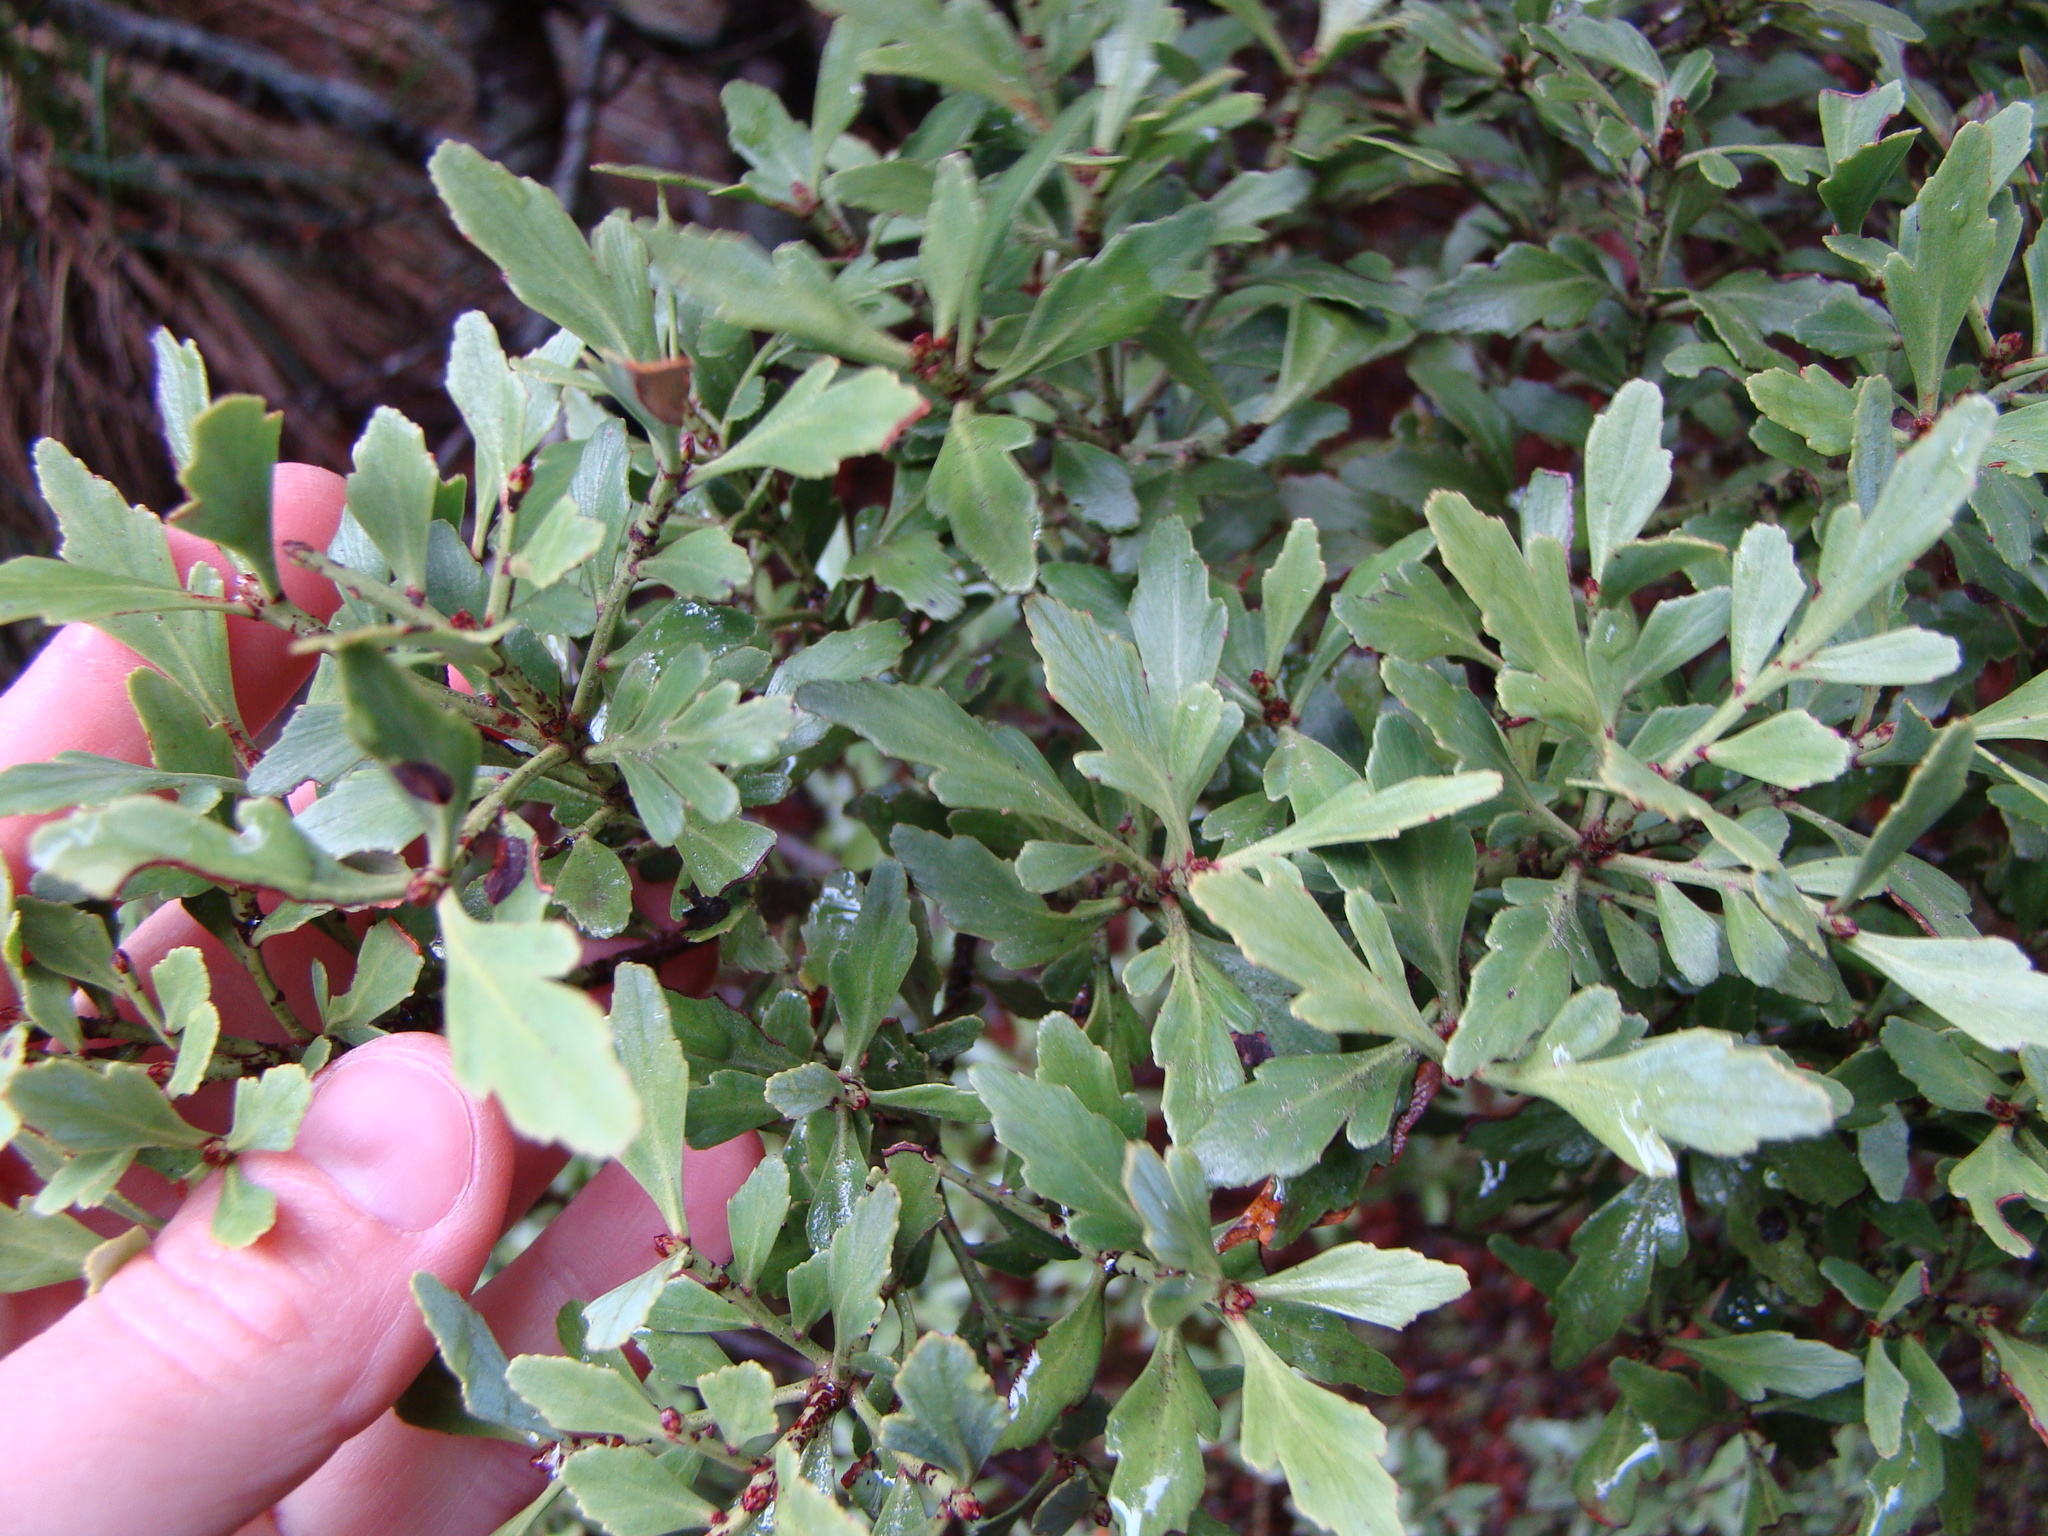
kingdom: Plantae
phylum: Tracheophyta
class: Pinopsida
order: Pinales
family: Phyllocladaceae
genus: Phyllocladus
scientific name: Phyllocladus trichomanoides
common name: Celery pine
